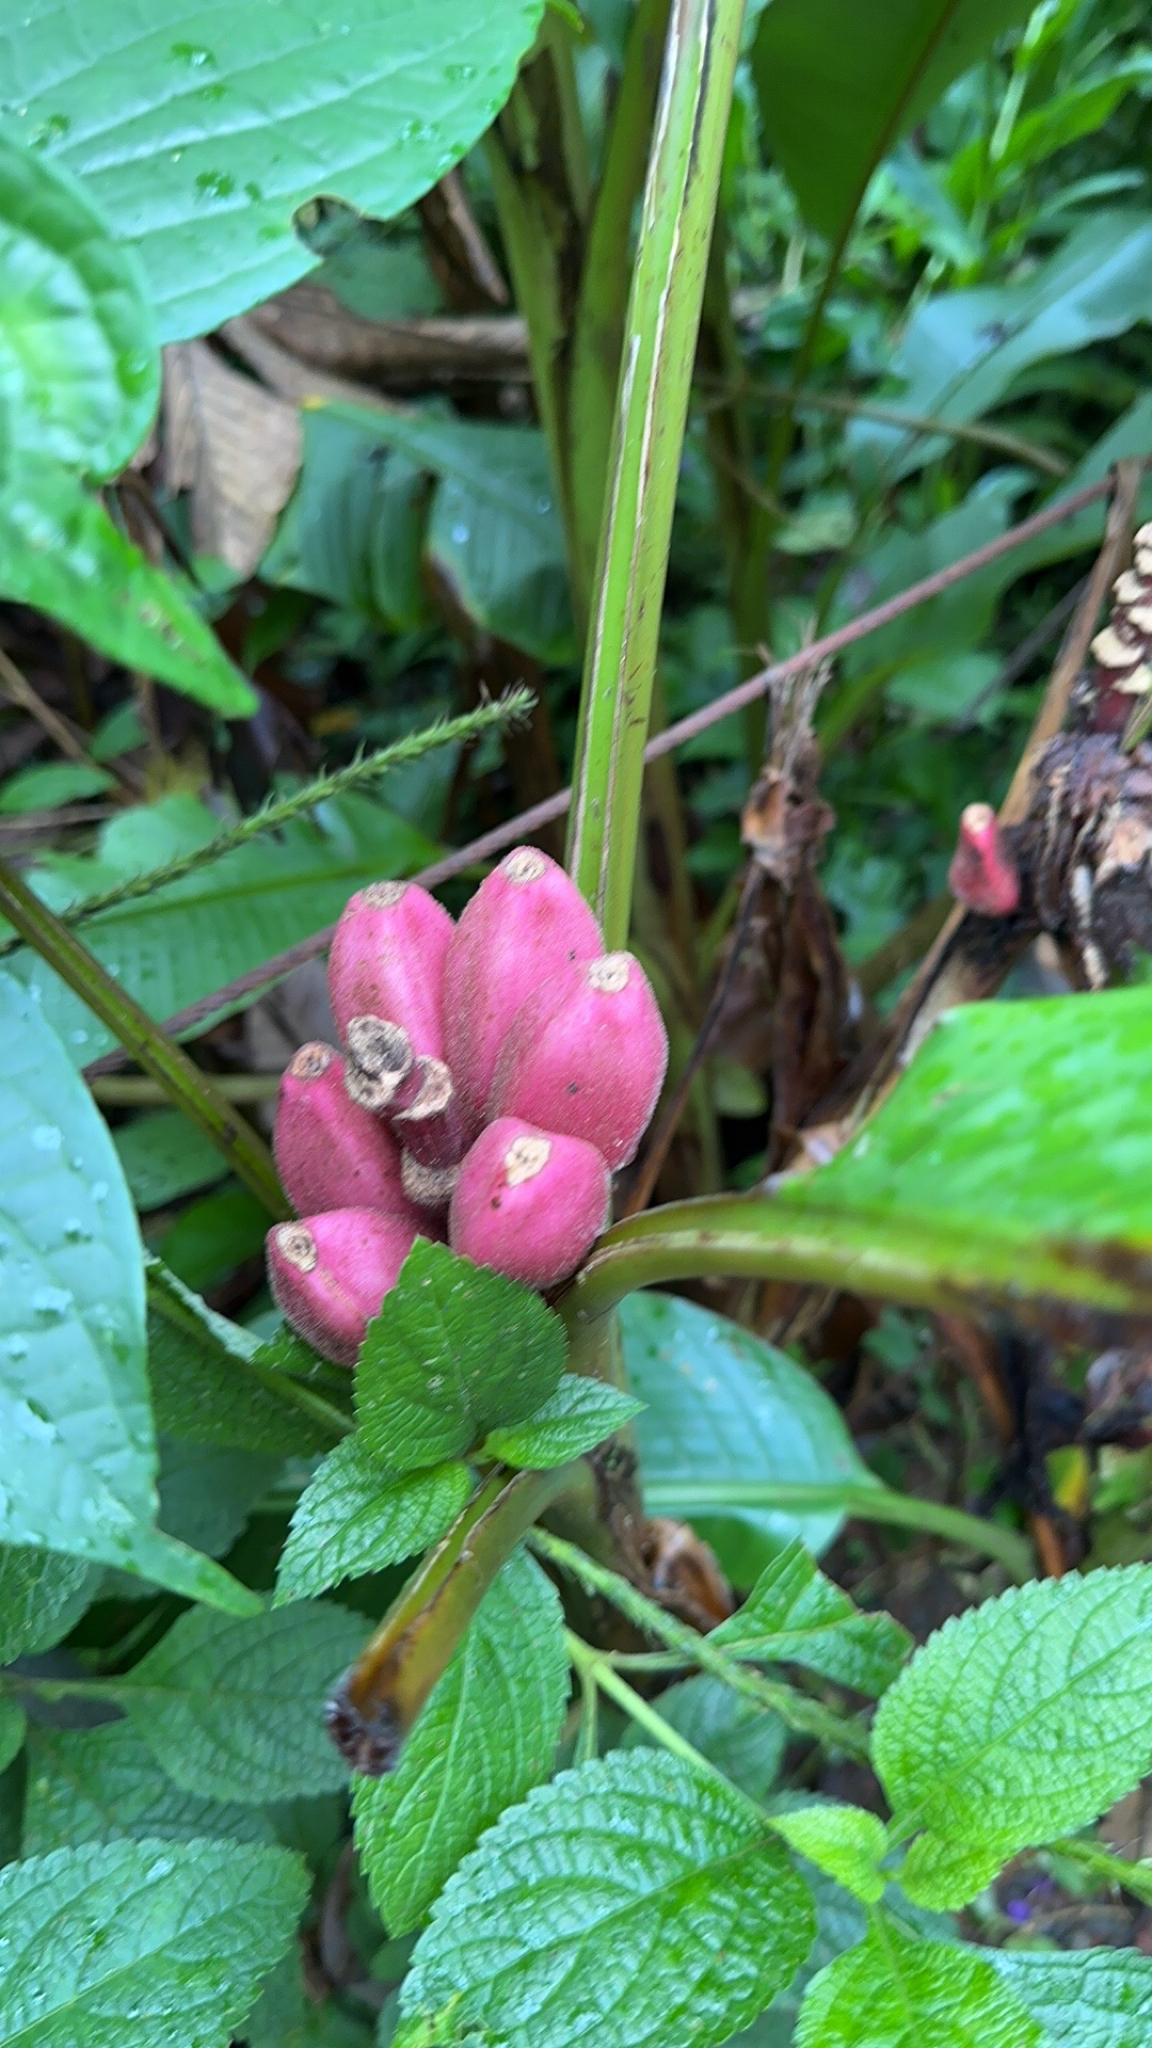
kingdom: Plantae
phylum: Tracheophyta
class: Liliopsida
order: Zingiberales
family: Musaceae
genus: Musa
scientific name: Musa velutina
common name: Pink velvet banana
